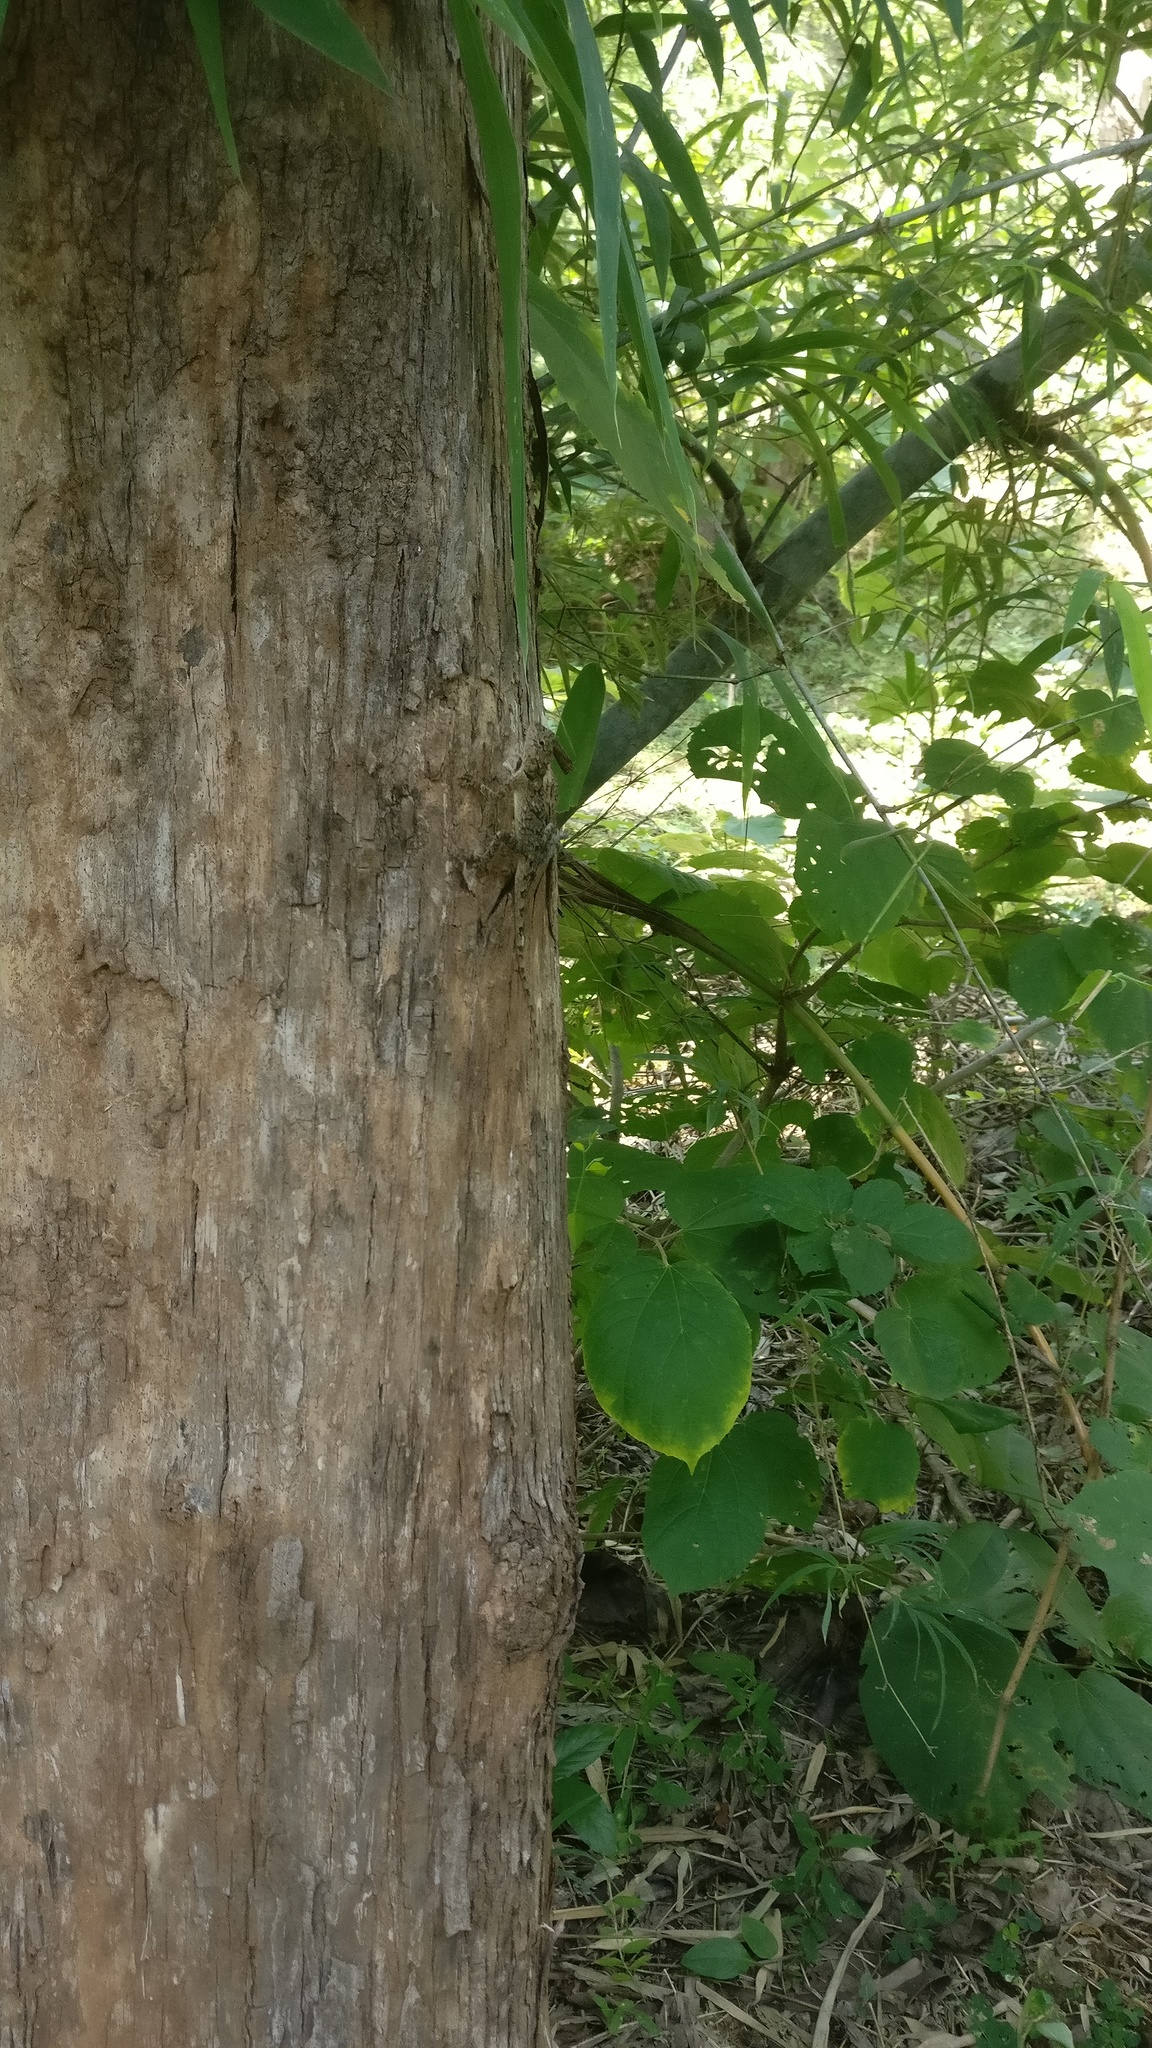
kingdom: Animalia
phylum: Chordata
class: Squamata
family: Agamidae
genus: Psammophilus
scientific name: Psammophilus dorsalis
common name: South indian rock agama
